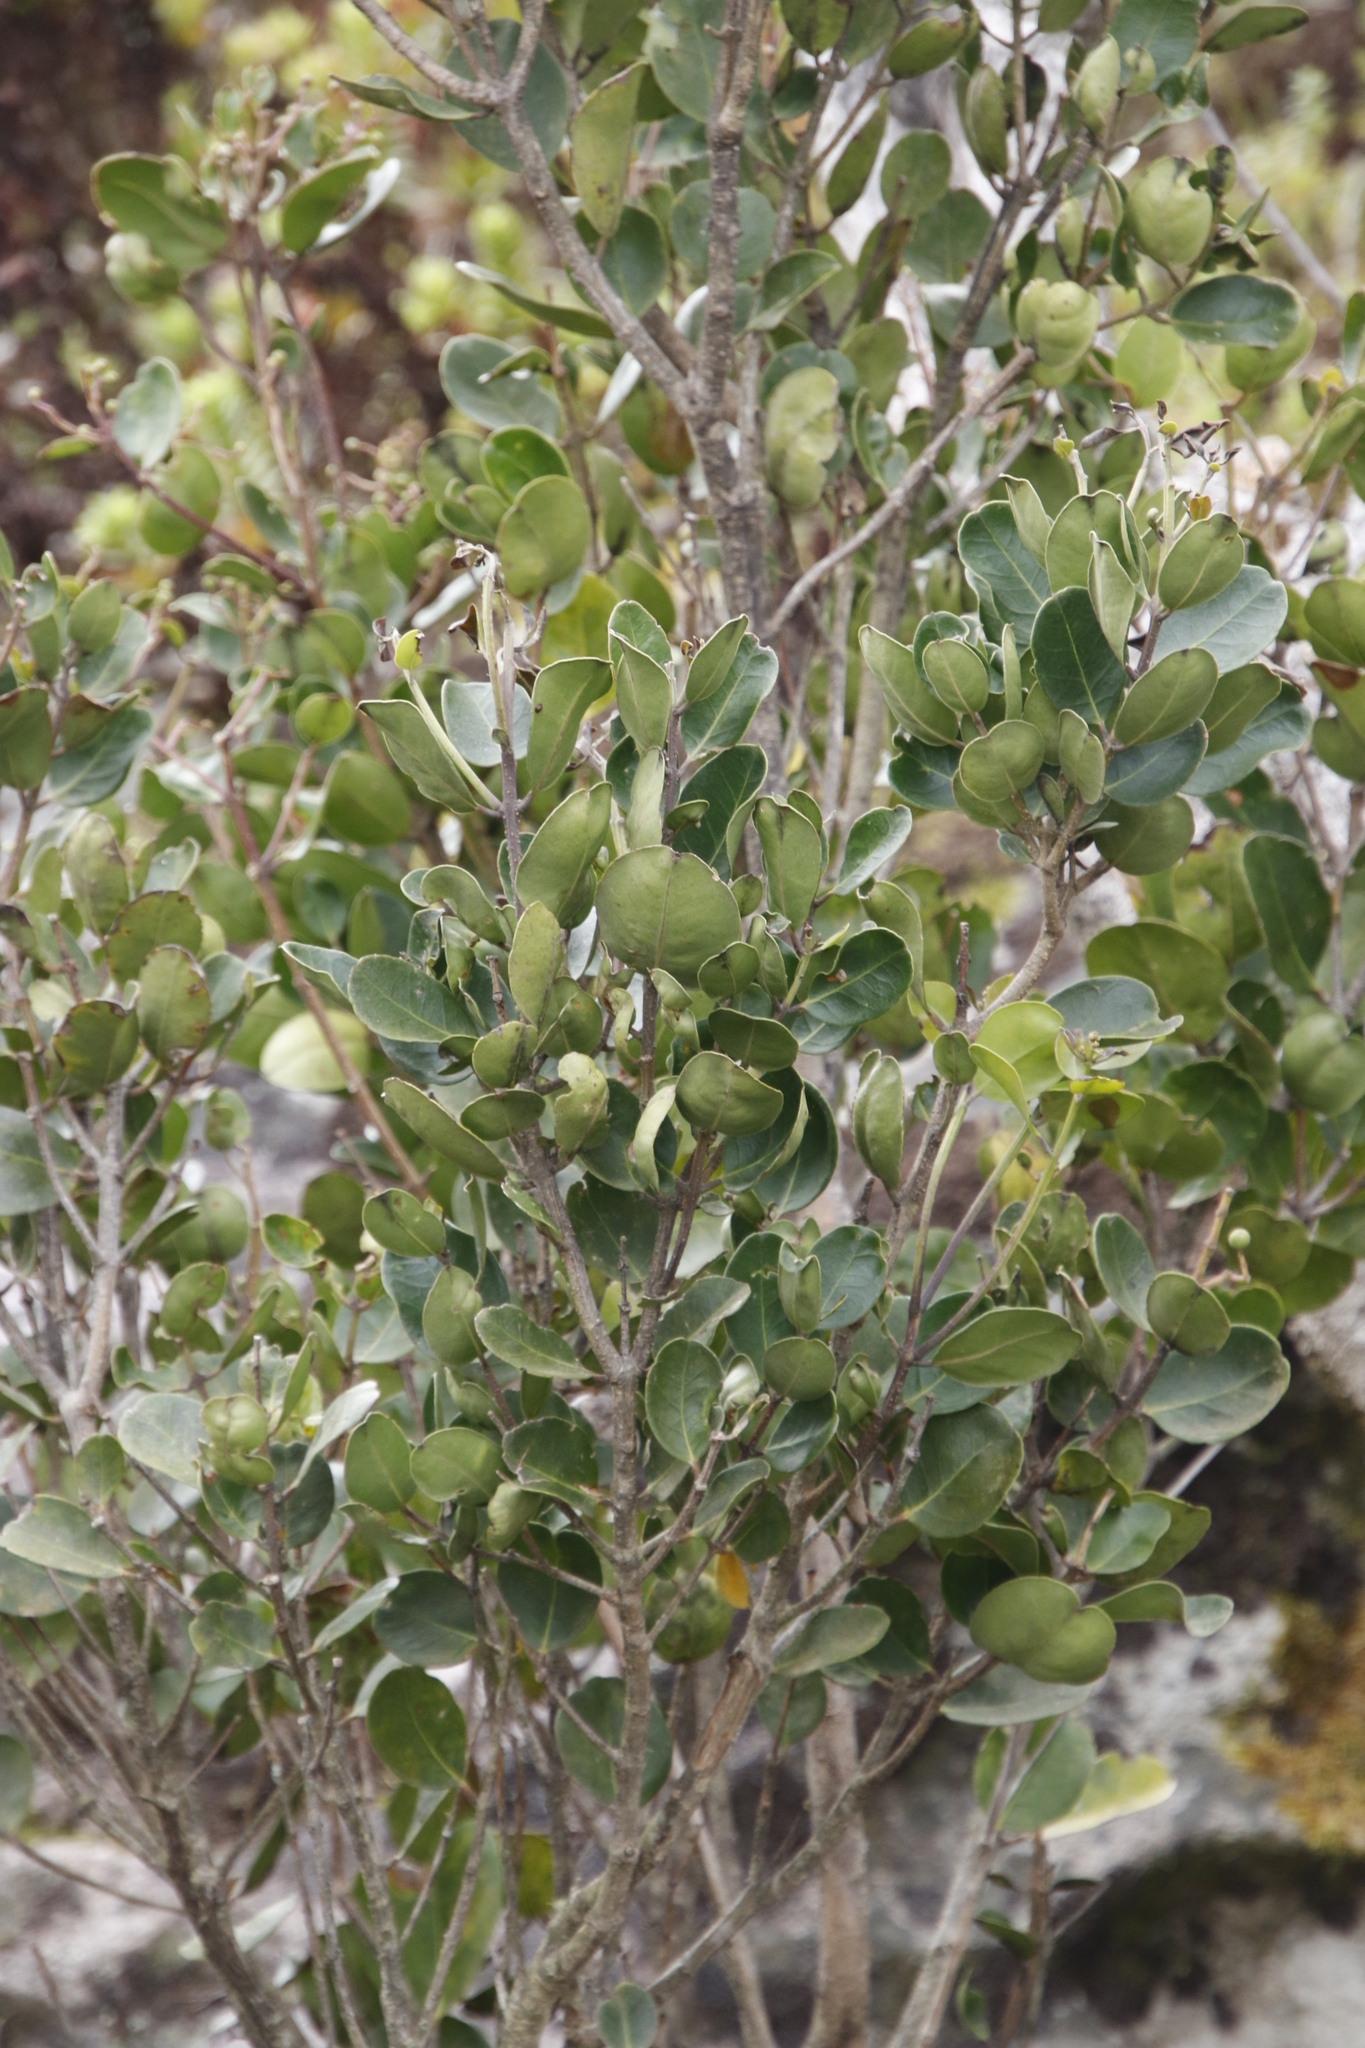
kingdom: Plantae
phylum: Tracheophyta
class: Magnoliopsida
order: Lamiales
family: Oleaceae
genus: Olea
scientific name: Olea capensis
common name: Black ironwood
